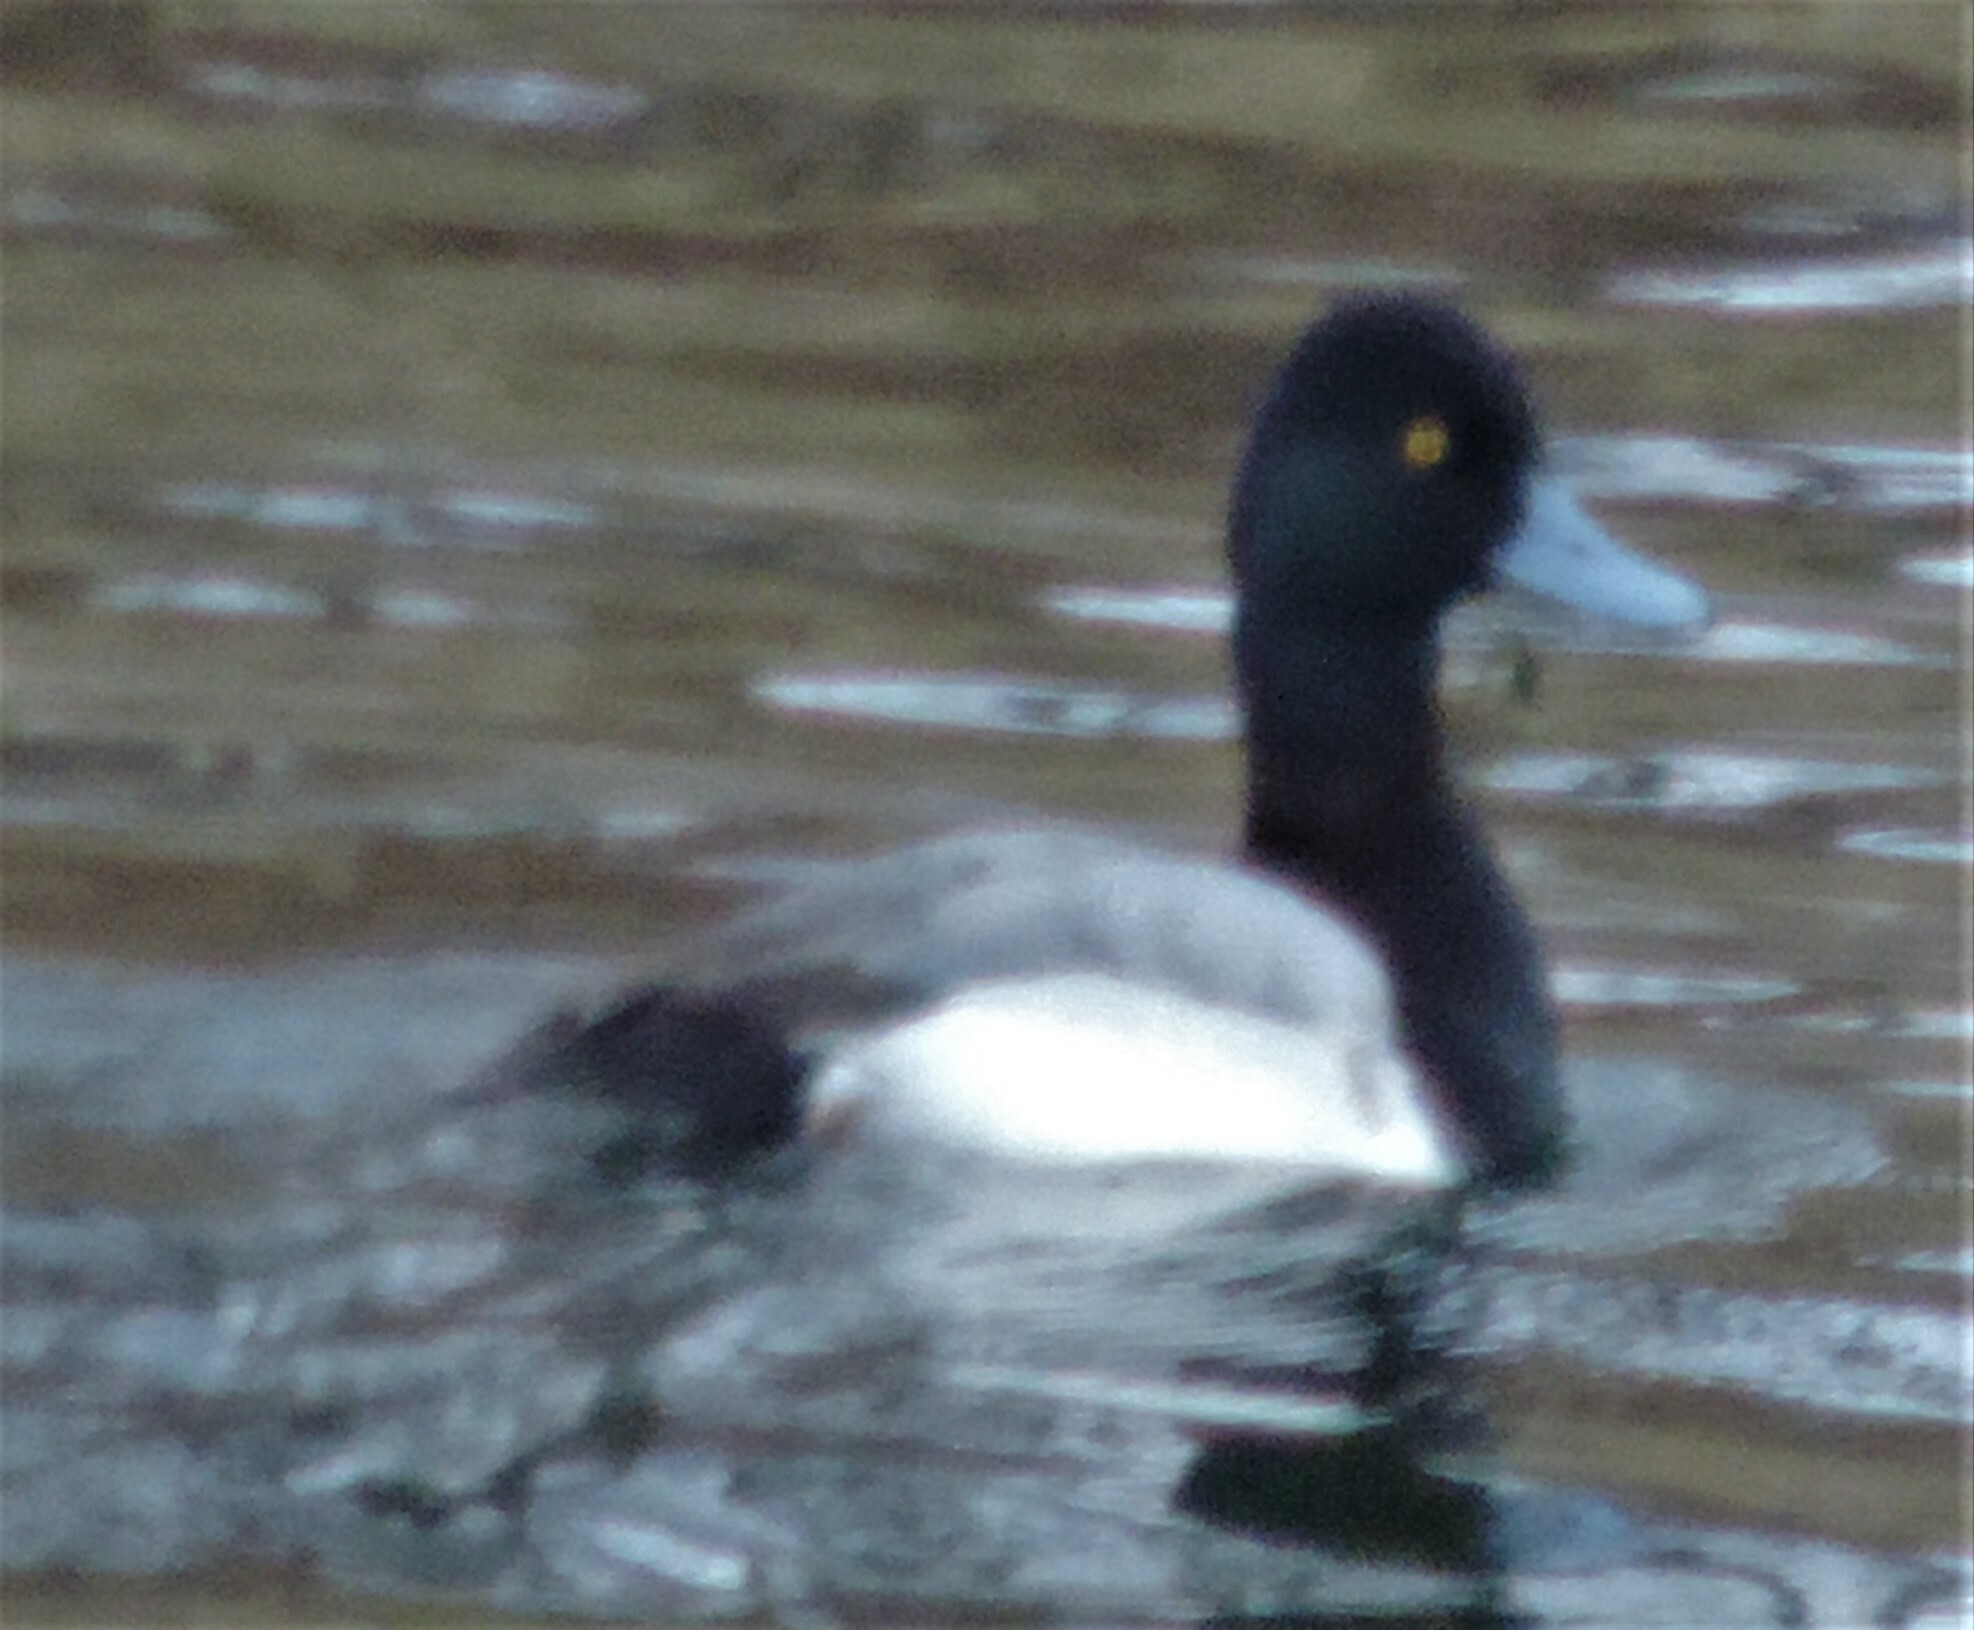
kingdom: Animalia
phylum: Chordata
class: Aves
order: Anseriformes
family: Anatidae
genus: Aythya
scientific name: Aythya affinis
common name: Lesser scaup
